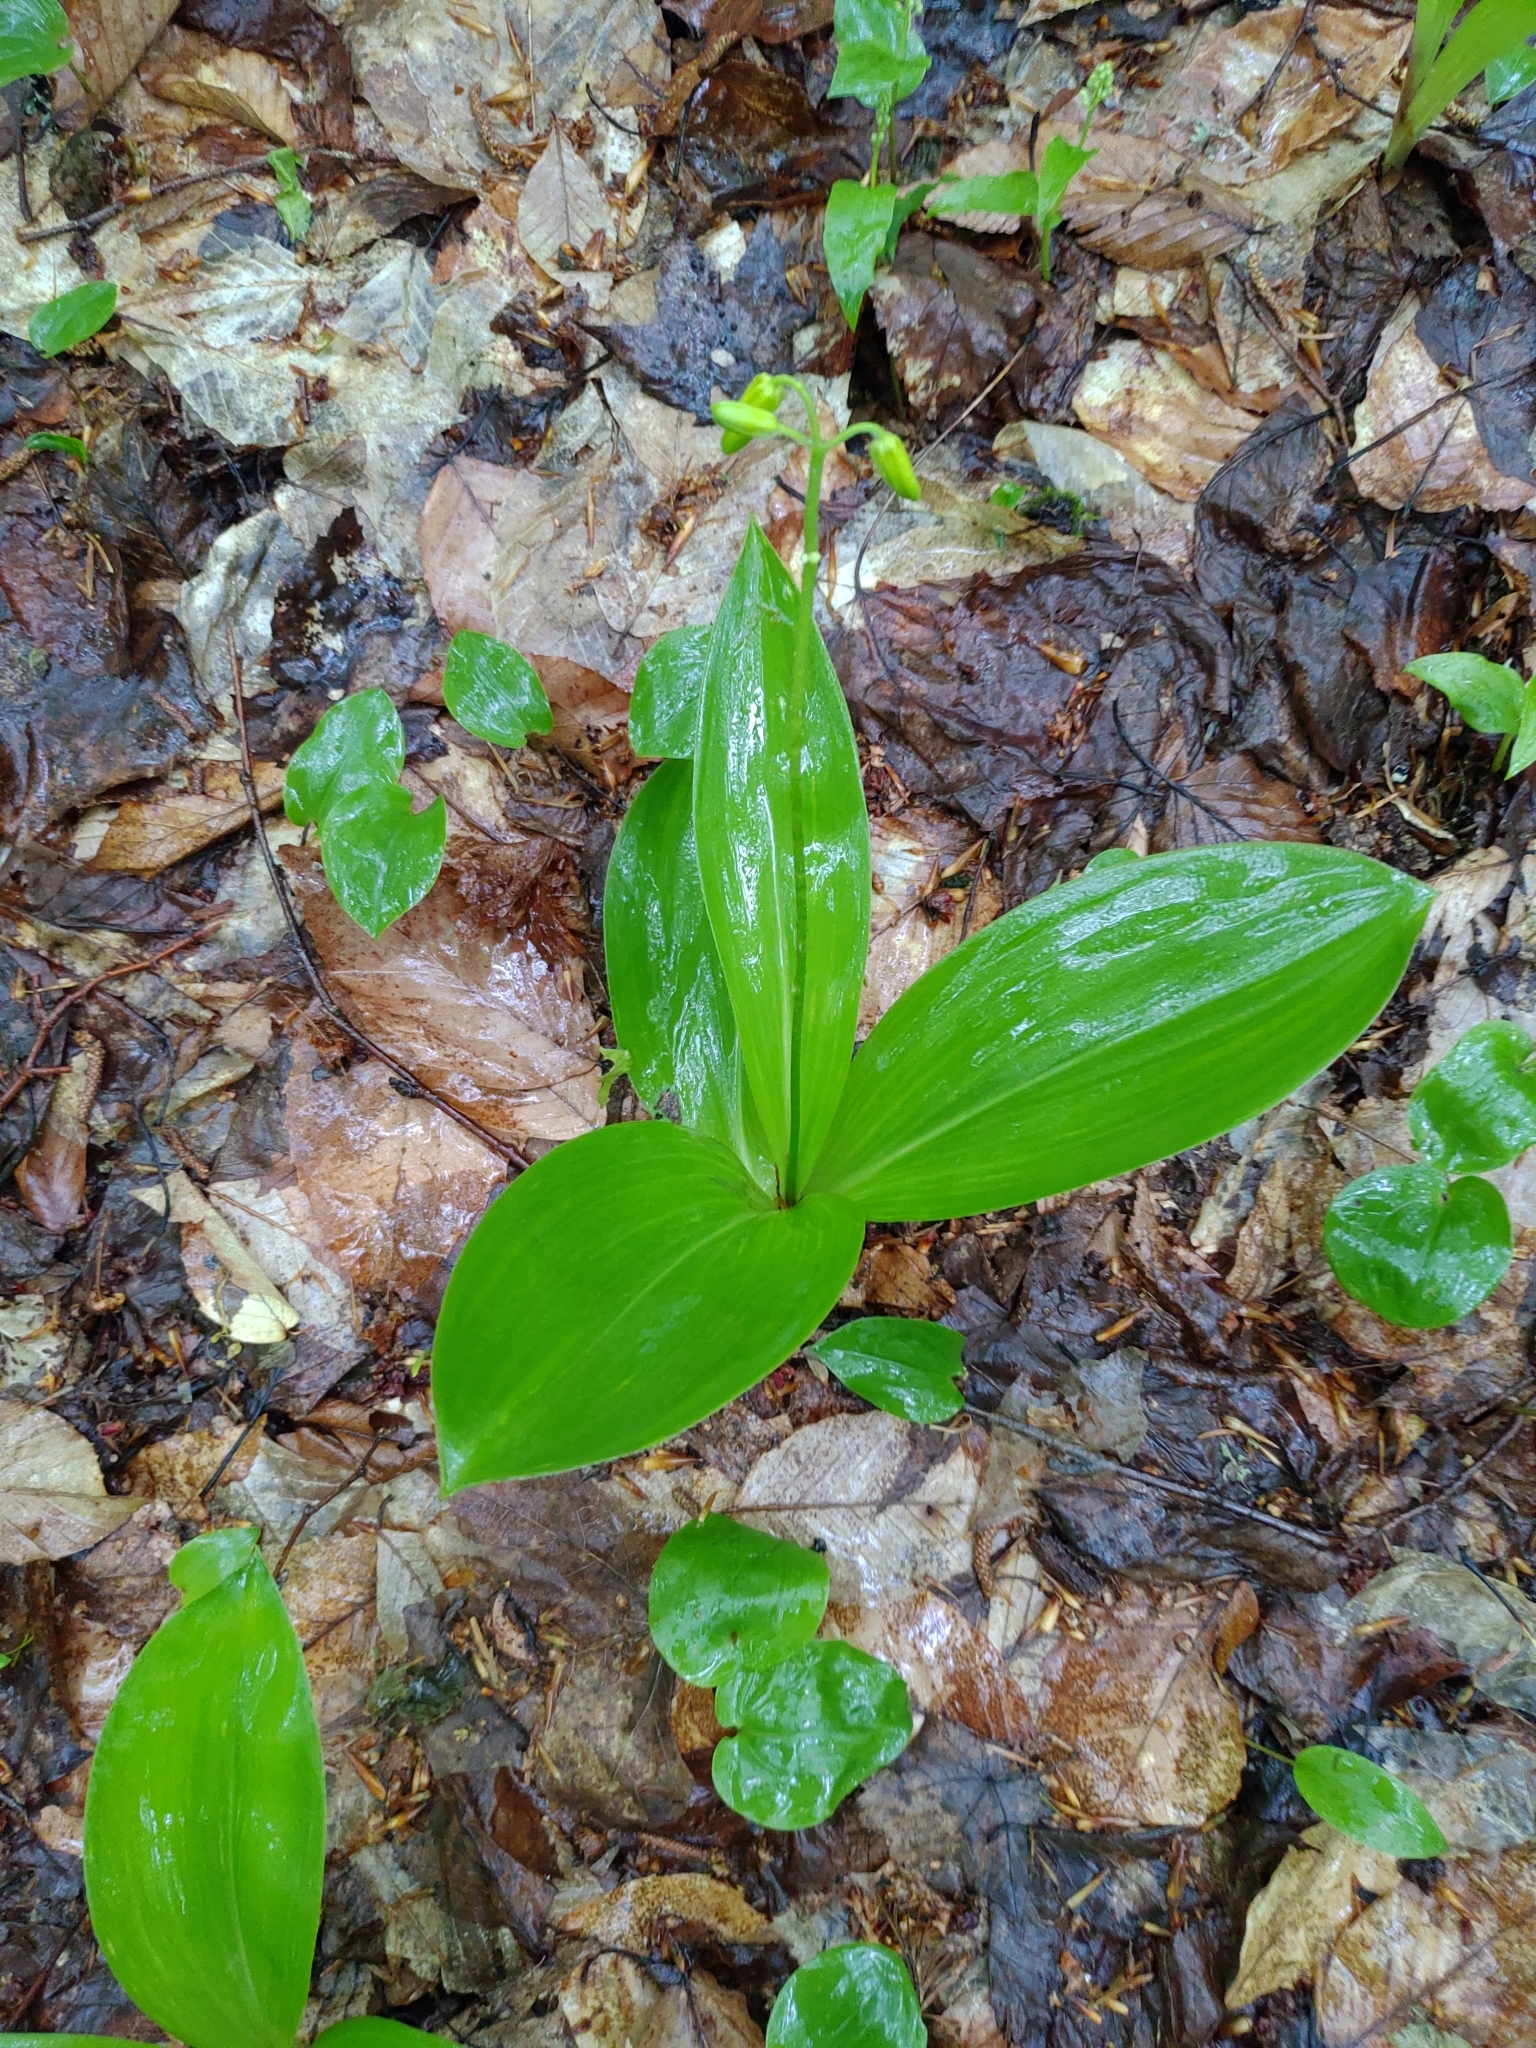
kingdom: Plantae
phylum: Tracheophyta
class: Liliopsida
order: Liliales
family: Liliaceae
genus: Clintonia
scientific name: Clintonia borealis
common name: Yellow clintonia
